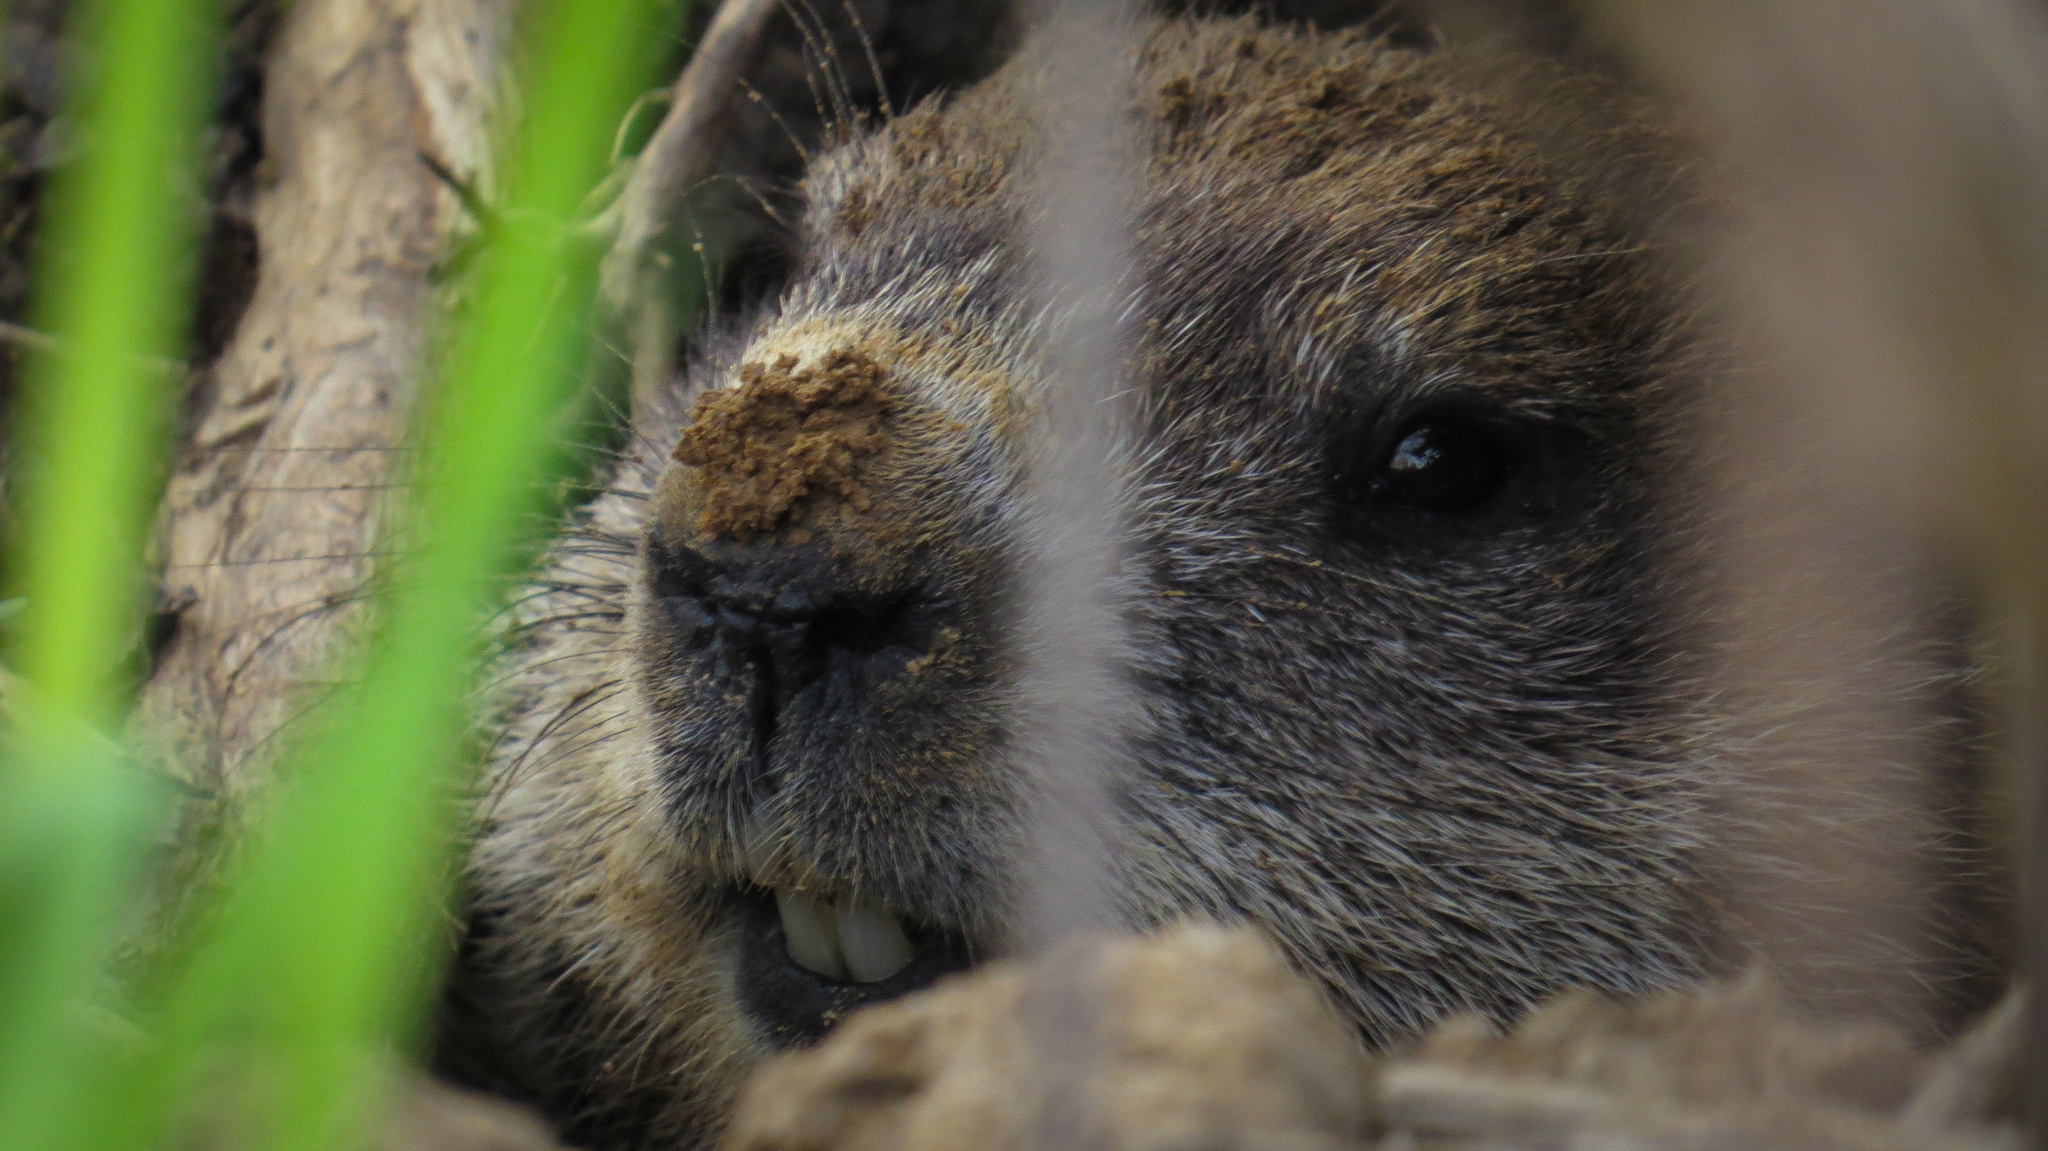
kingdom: Animalia
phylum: Chordata
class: Mammalia
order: Rodentia
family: Sciuridae
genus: Marmota
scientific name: Marmota monax
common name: Groundhog
